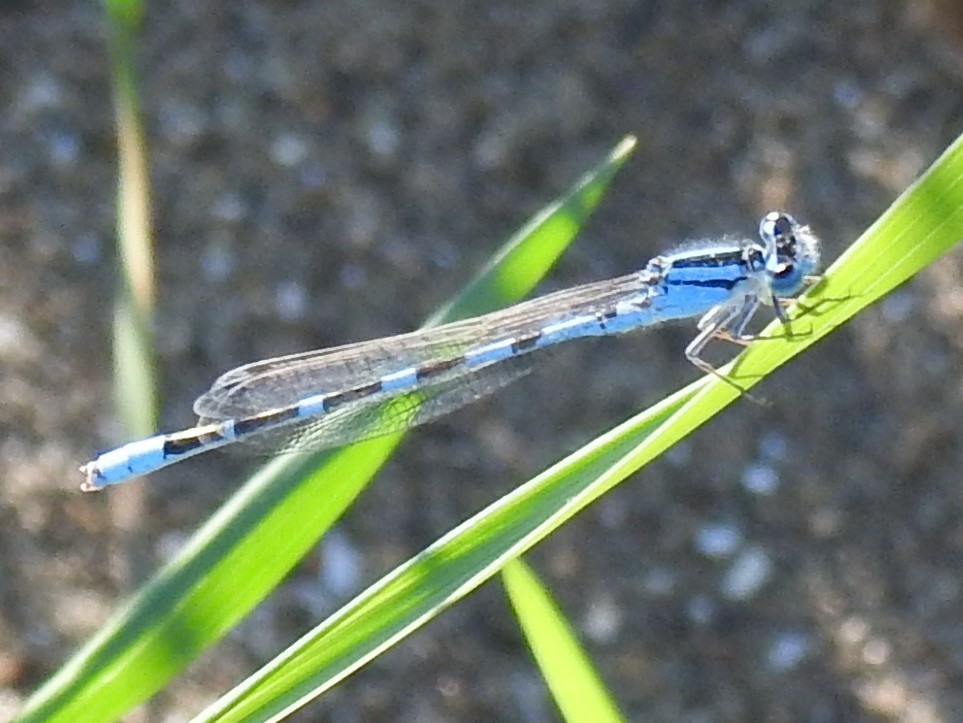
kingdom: Animalia
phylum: Arthropoda
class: Insecta
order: Odonata
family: Coenagrionidae
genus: Enallagma
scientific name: Enallagma carunculatum
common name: Tule bluet
